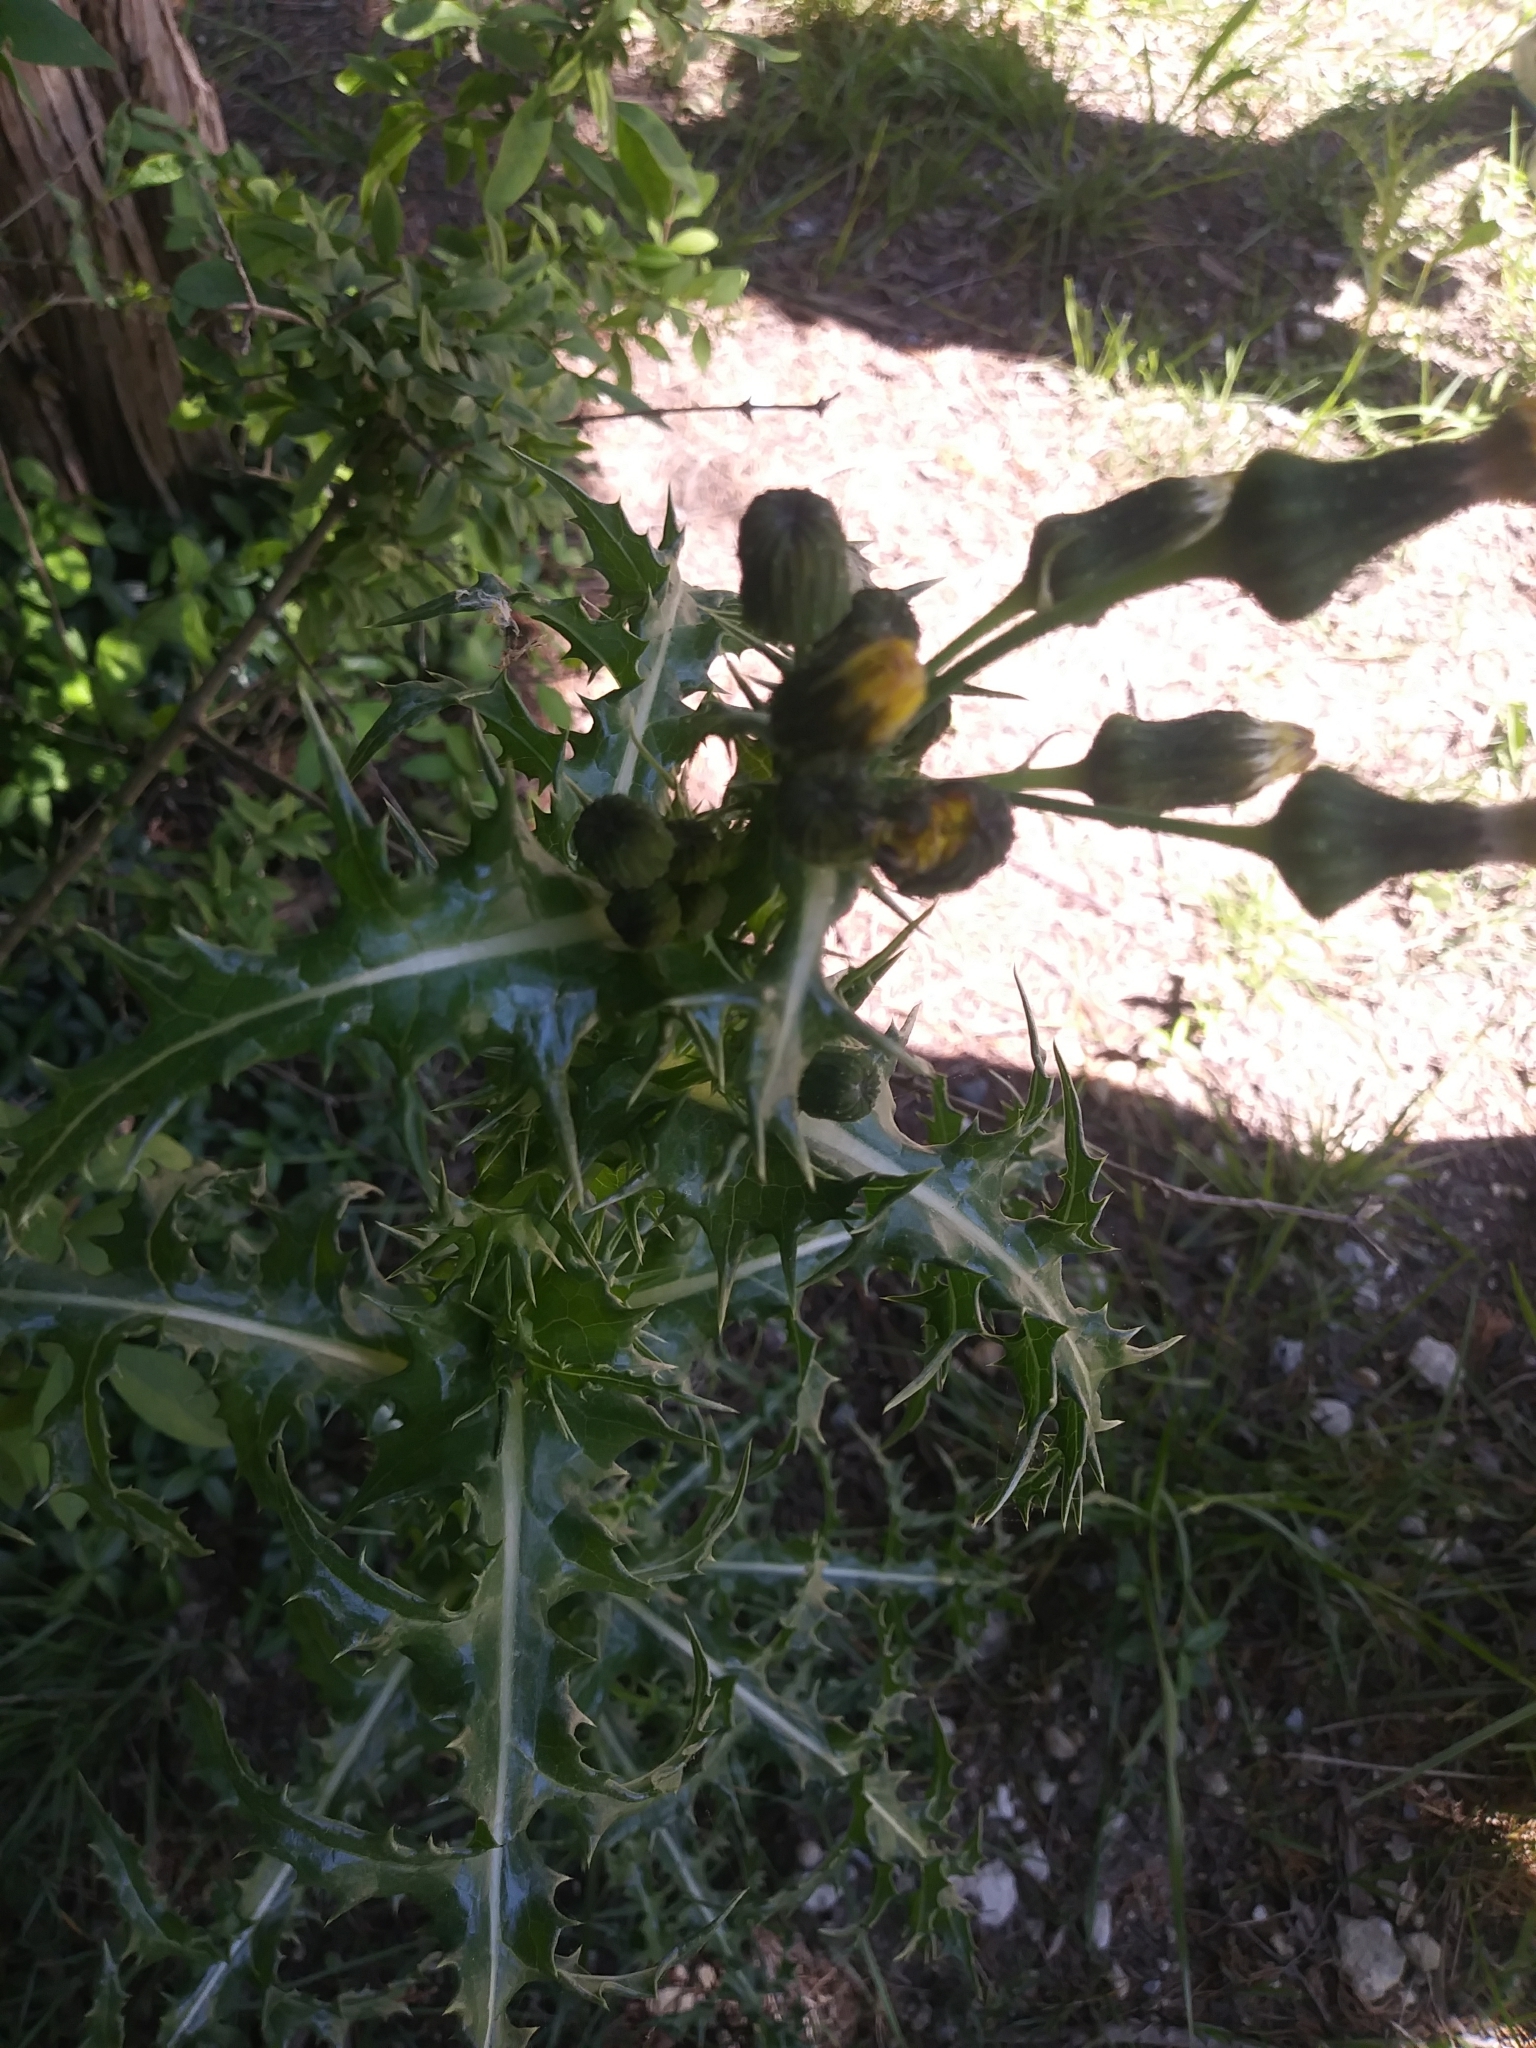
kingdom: Plantae
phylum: Tracheophyta
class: Magnoliopsida
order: Asterales
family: Asteraceae
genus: Sonchus
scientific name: Sonchus asper
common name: Prickly sow-thistle
